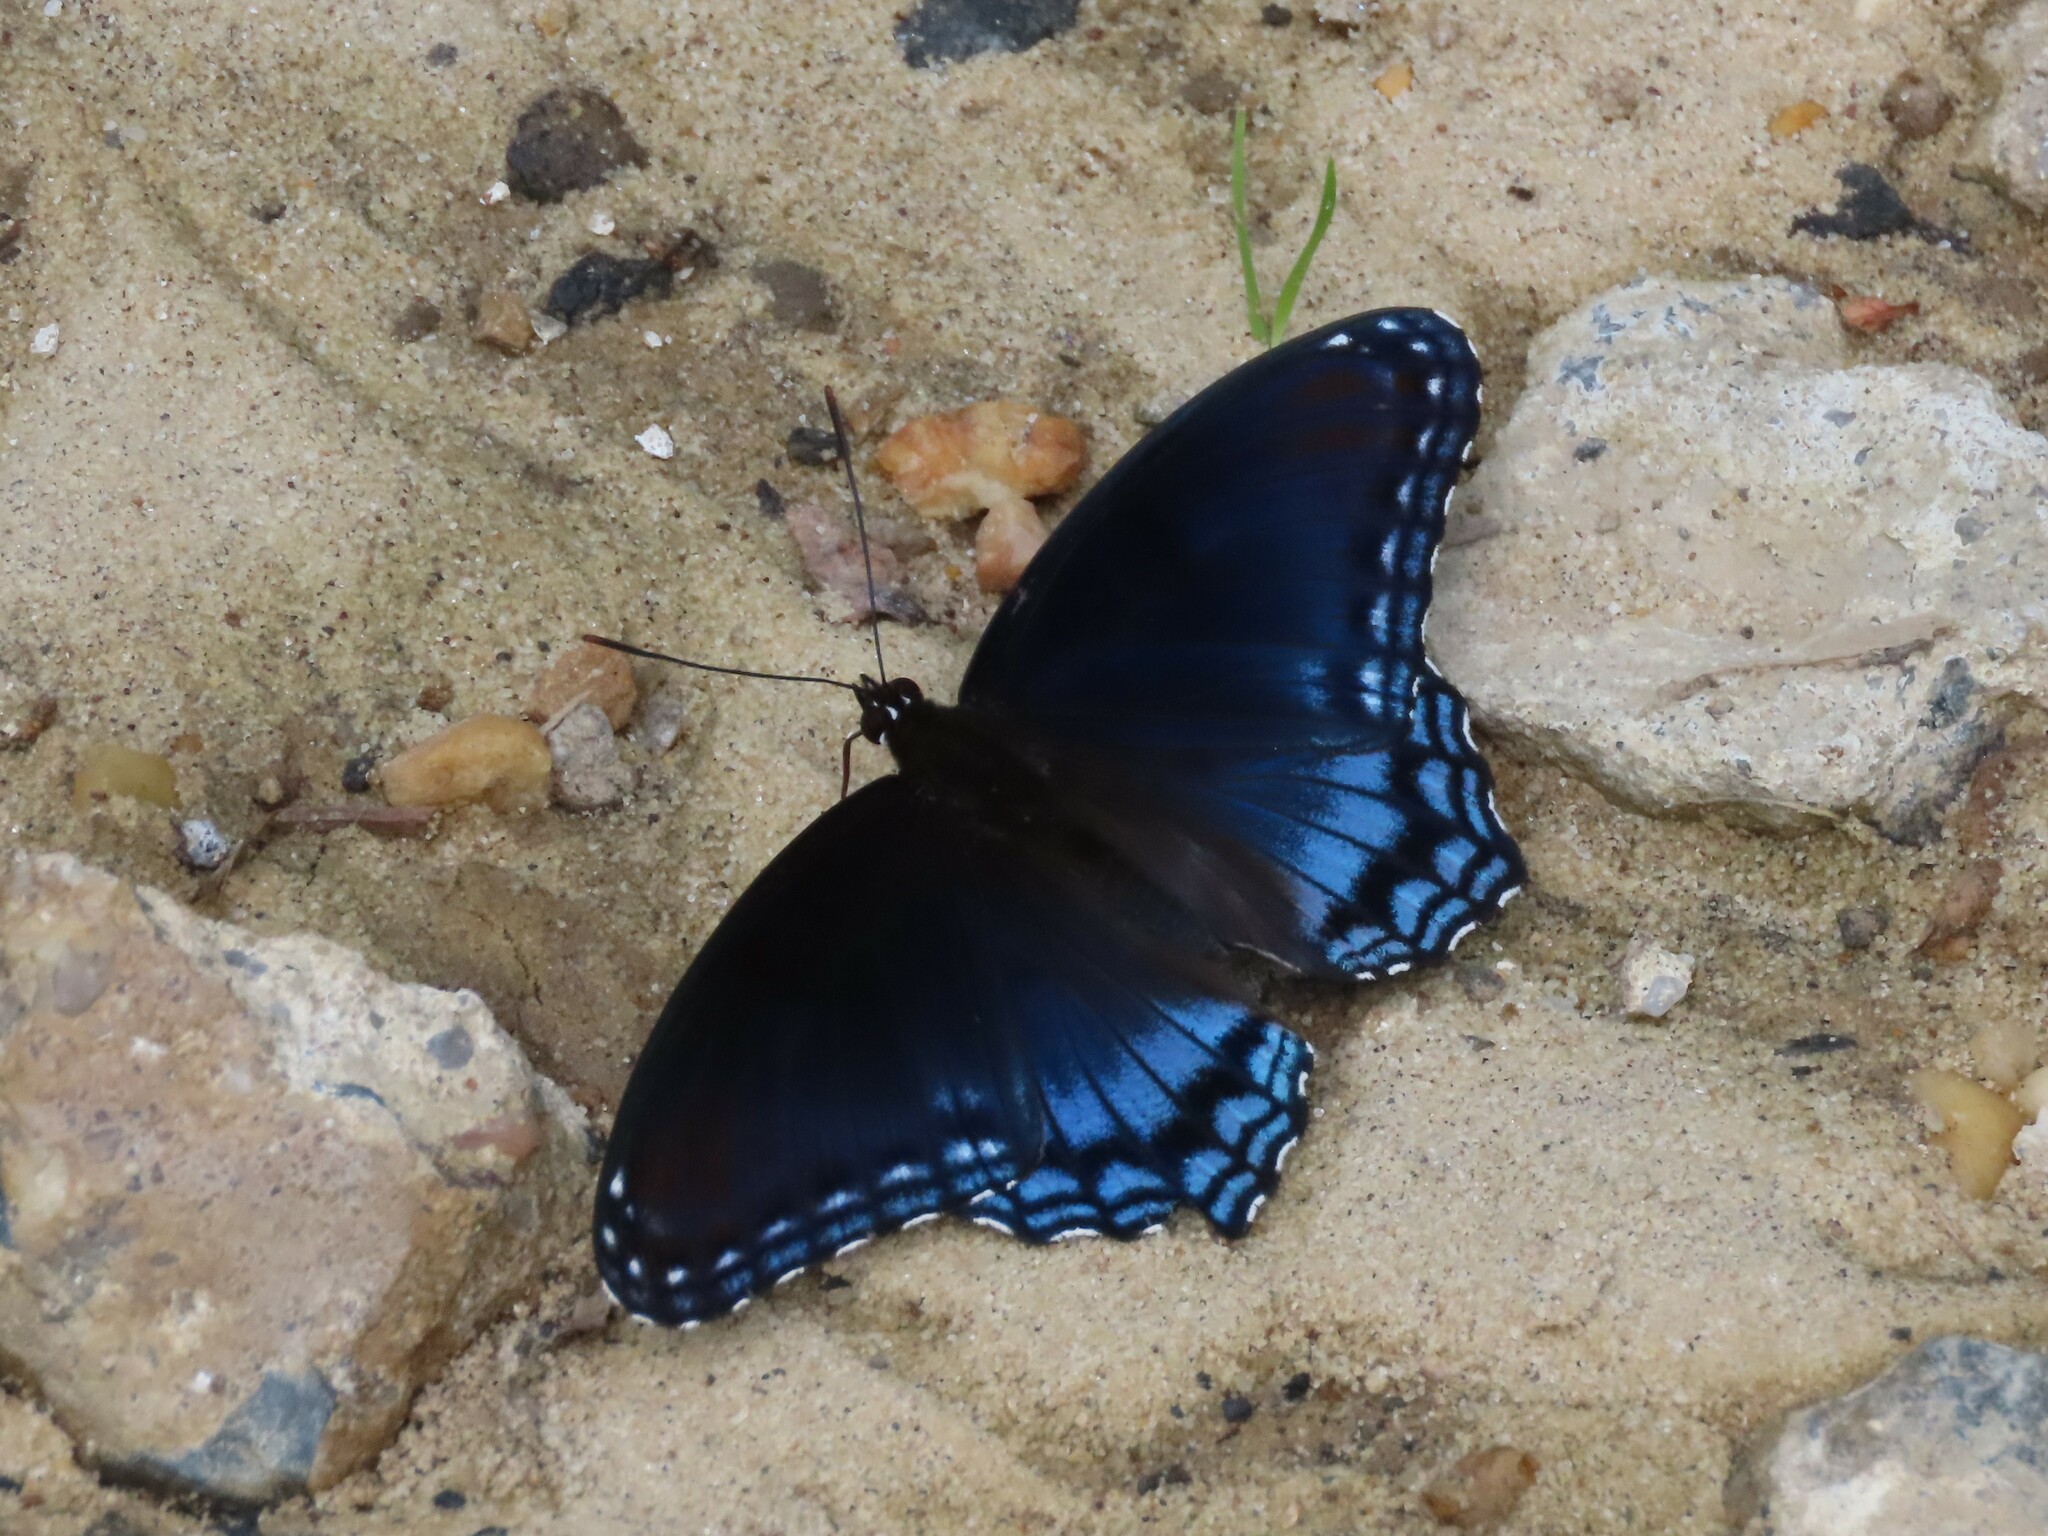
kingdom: Animalia
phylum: Arthropoda
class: Insecta
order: Lepidoptera
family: Nymphalidae
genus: Limenitis
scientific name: Limenitis astyanax
